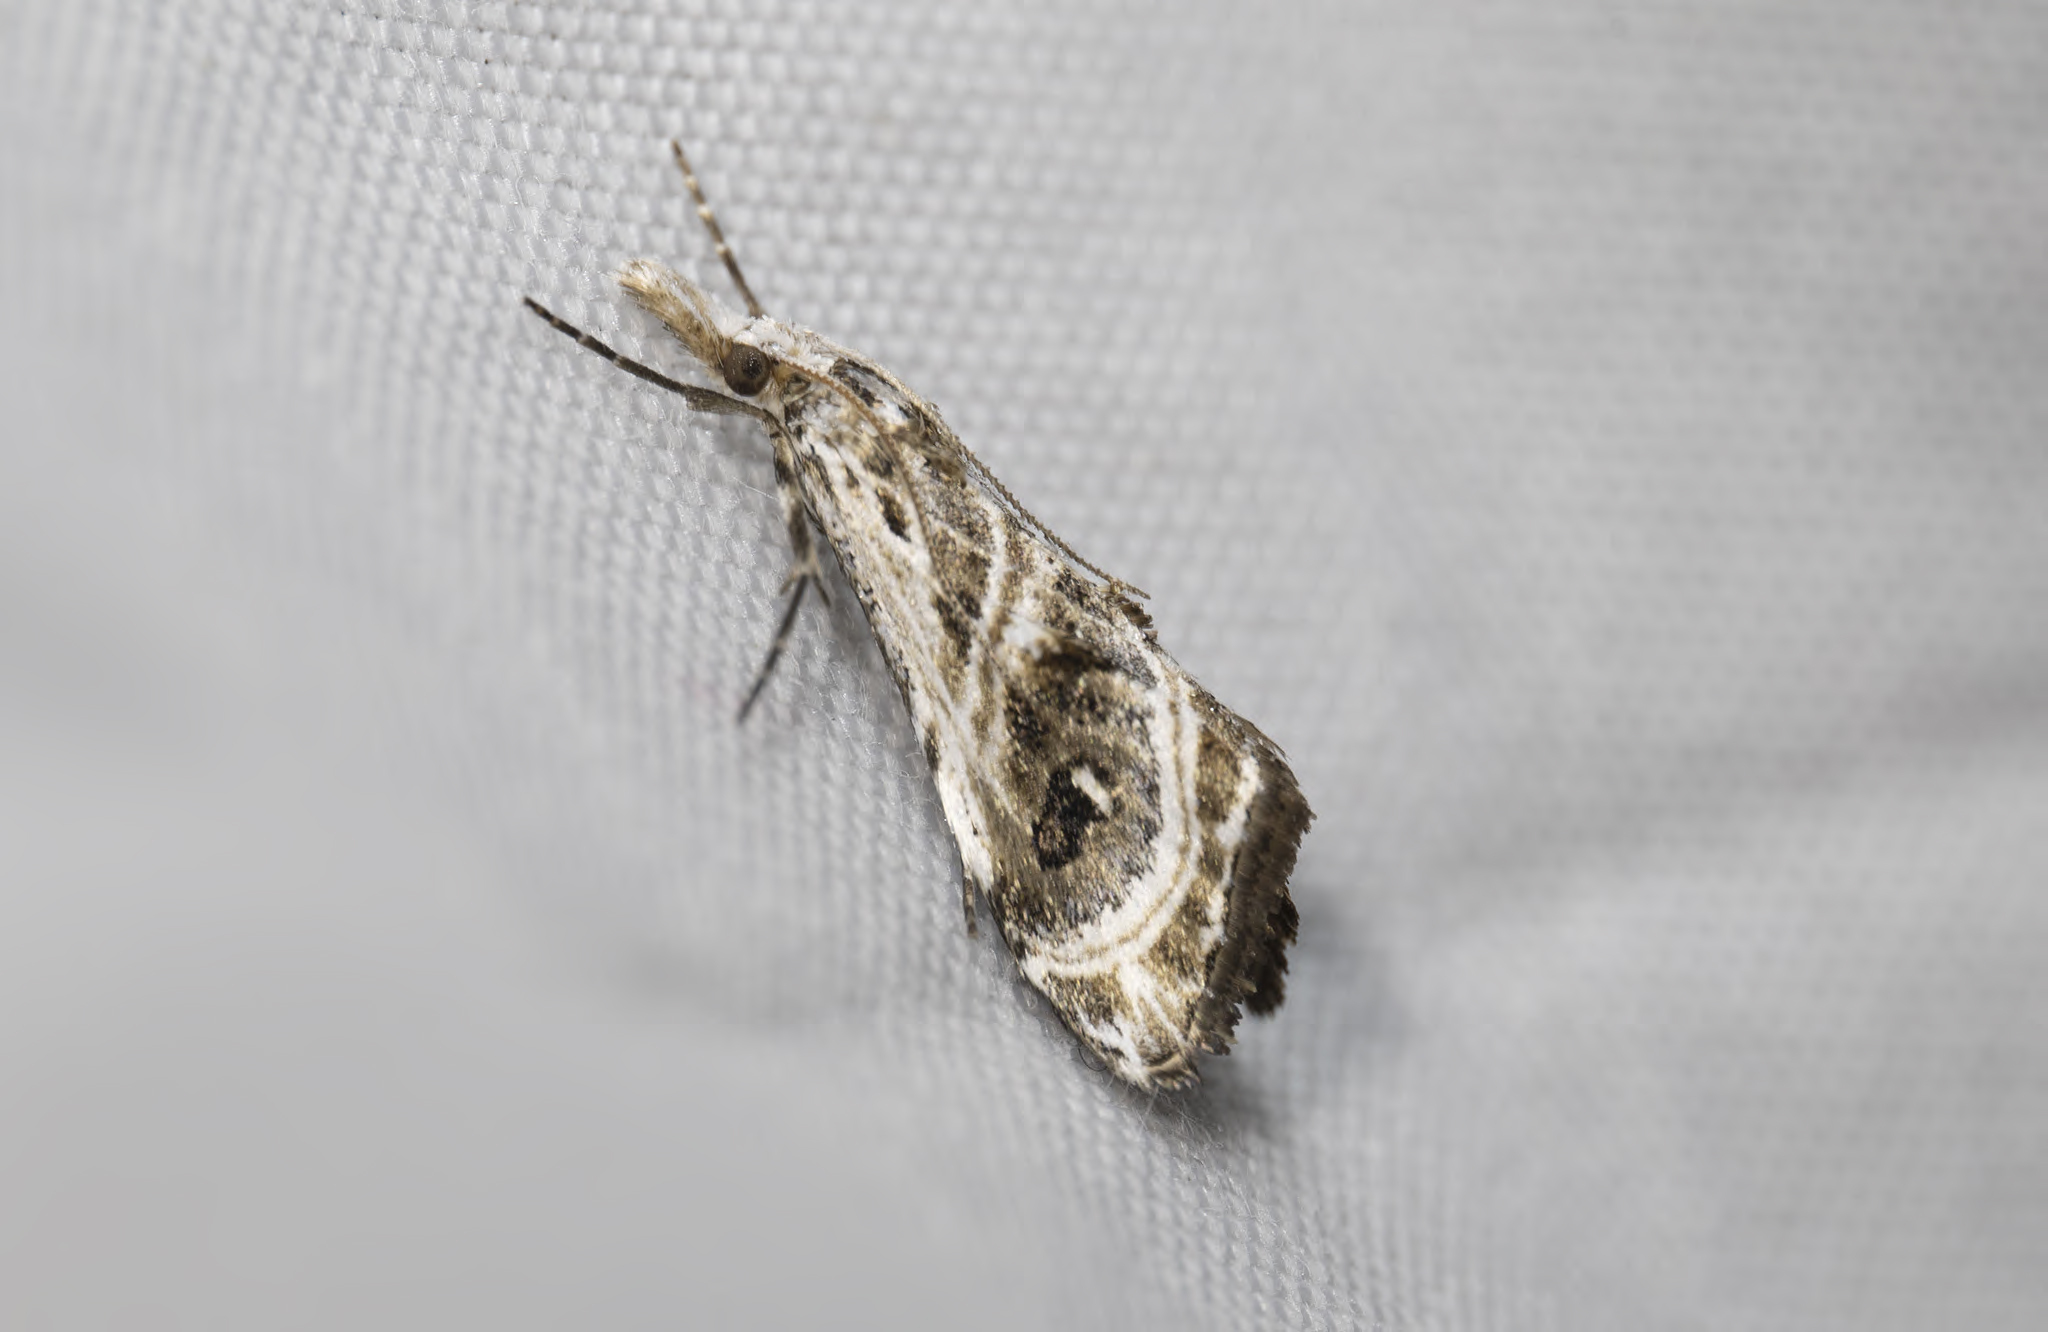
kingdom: Animalia
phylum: Arthropoda
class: Insecta
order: Lepidoptera
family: Crambidae
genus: Gadira
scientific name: Gadira acerella
